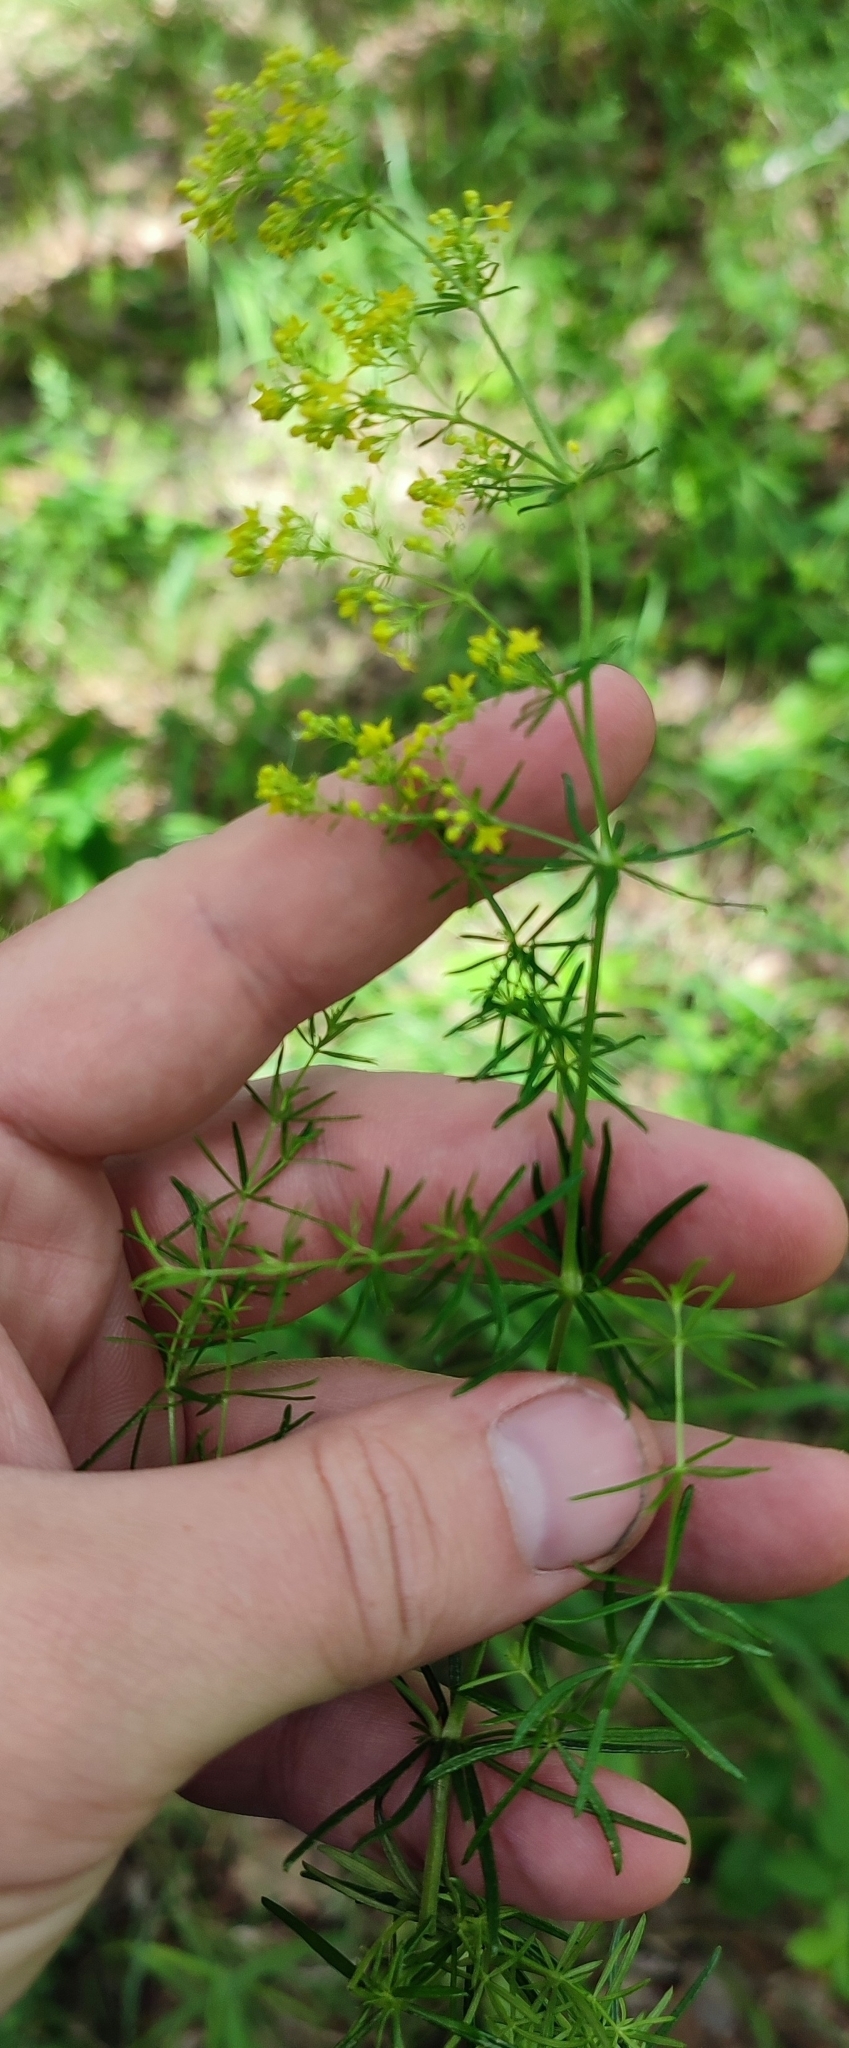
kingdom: Plantae
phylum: Tracheophyta
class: Magnoliopsida
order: Gentianales
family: Rubiaceae
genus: Galium
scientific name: Galium verum
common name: Lady's bedstraw
